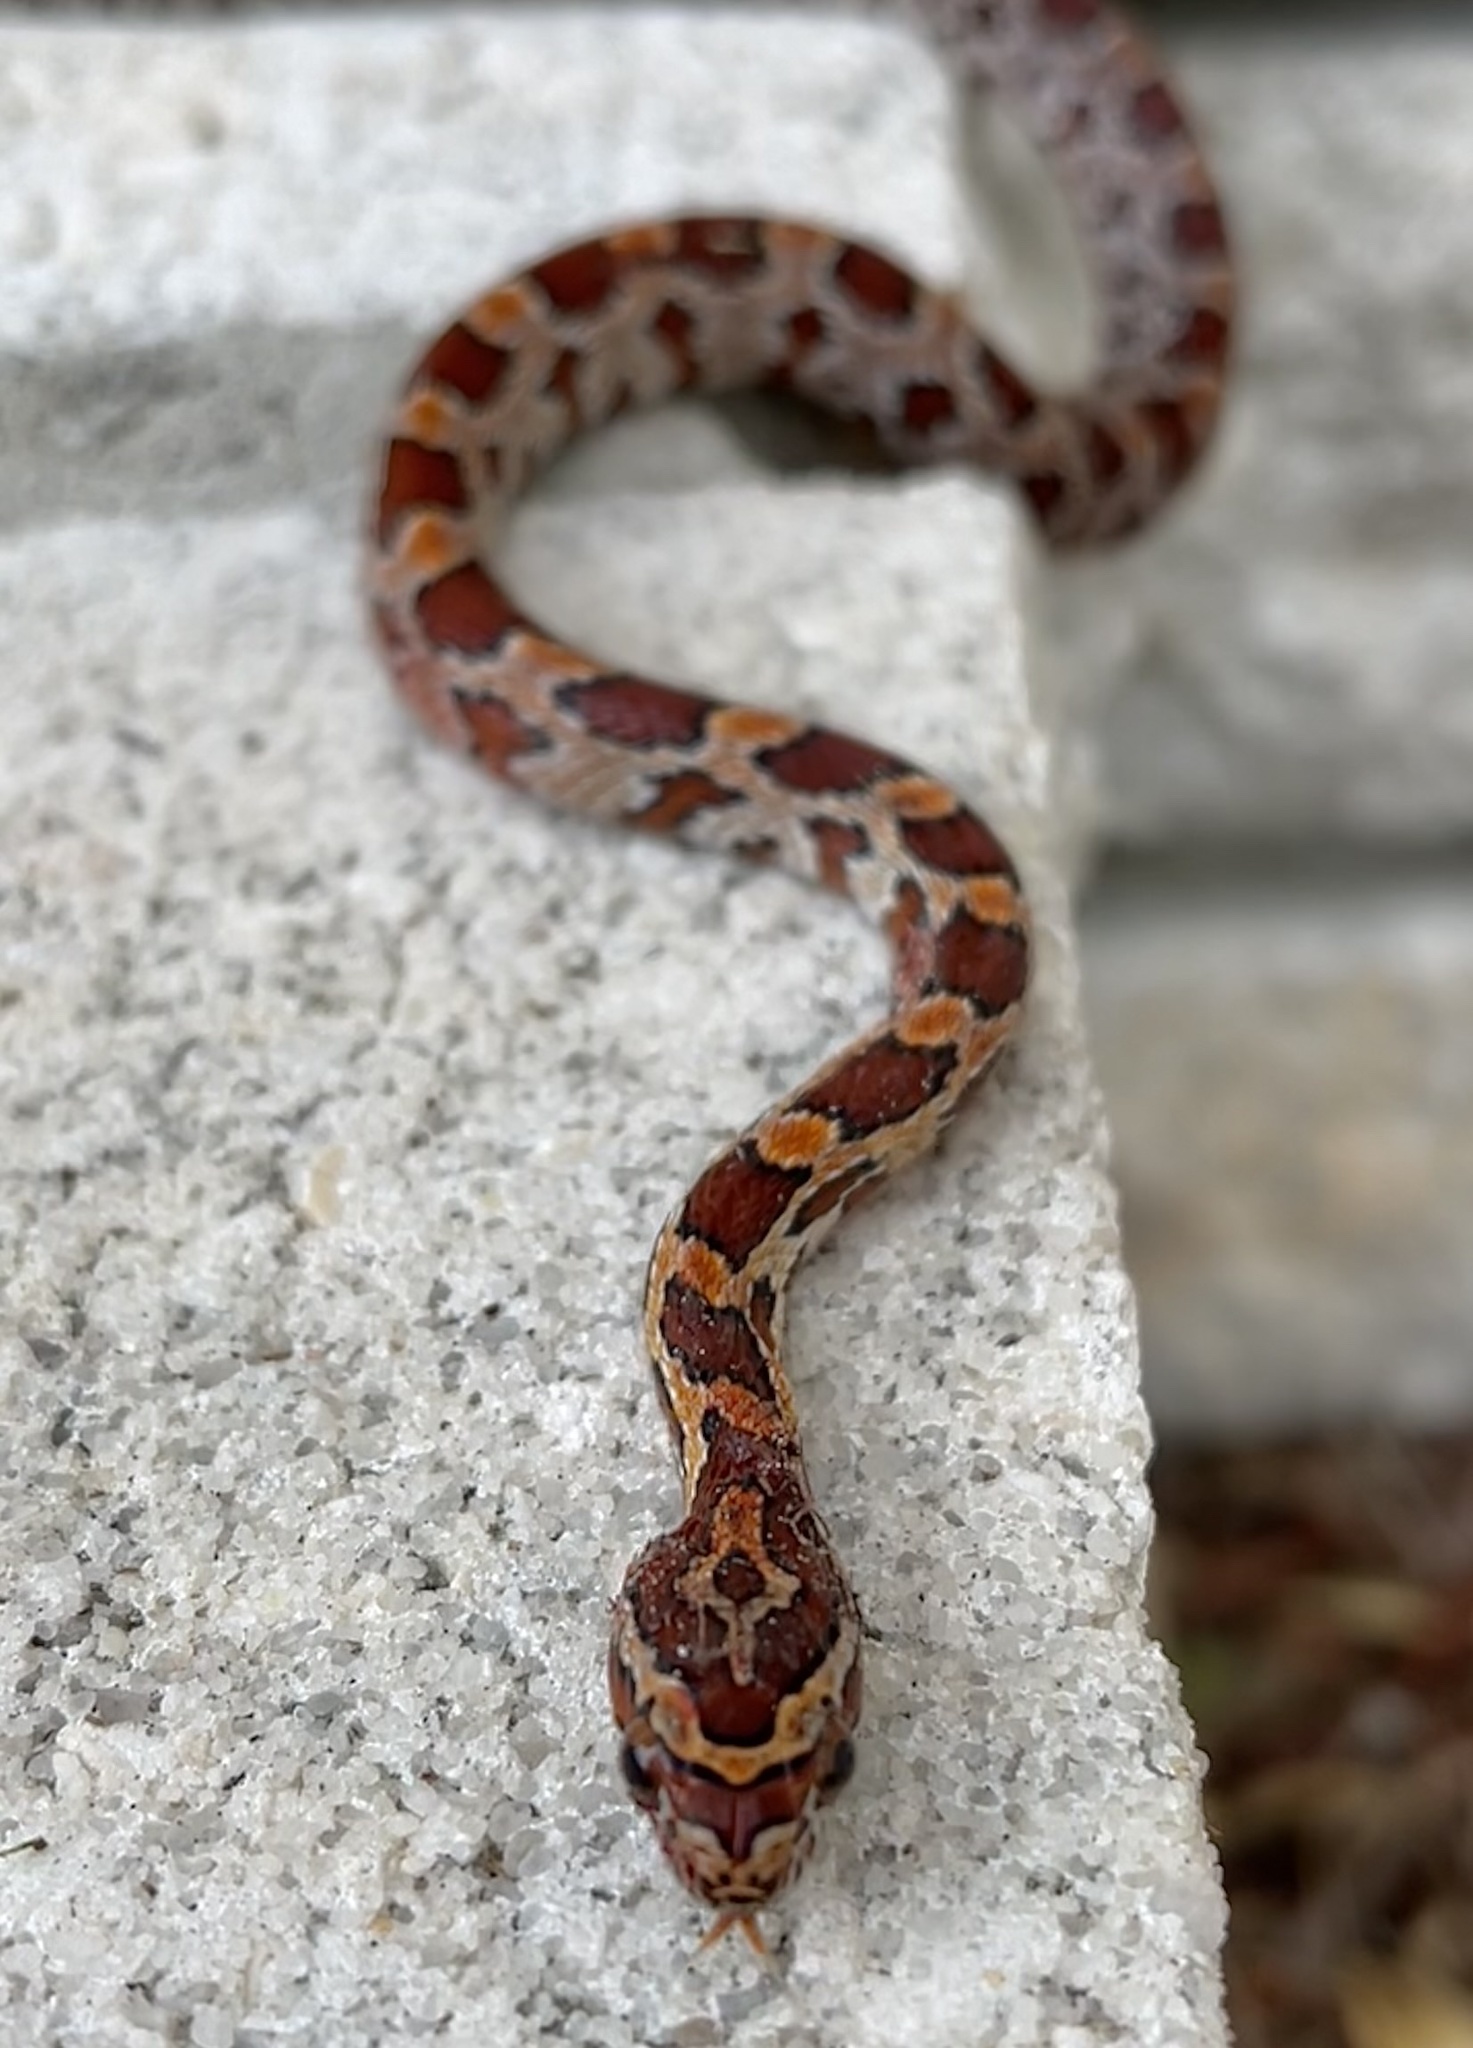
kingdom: Animalia
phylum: Chordata
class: Squamata
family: Colubridae
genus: Pantherophis
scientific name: Pantherophis guttatus
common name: Red cornsnake
